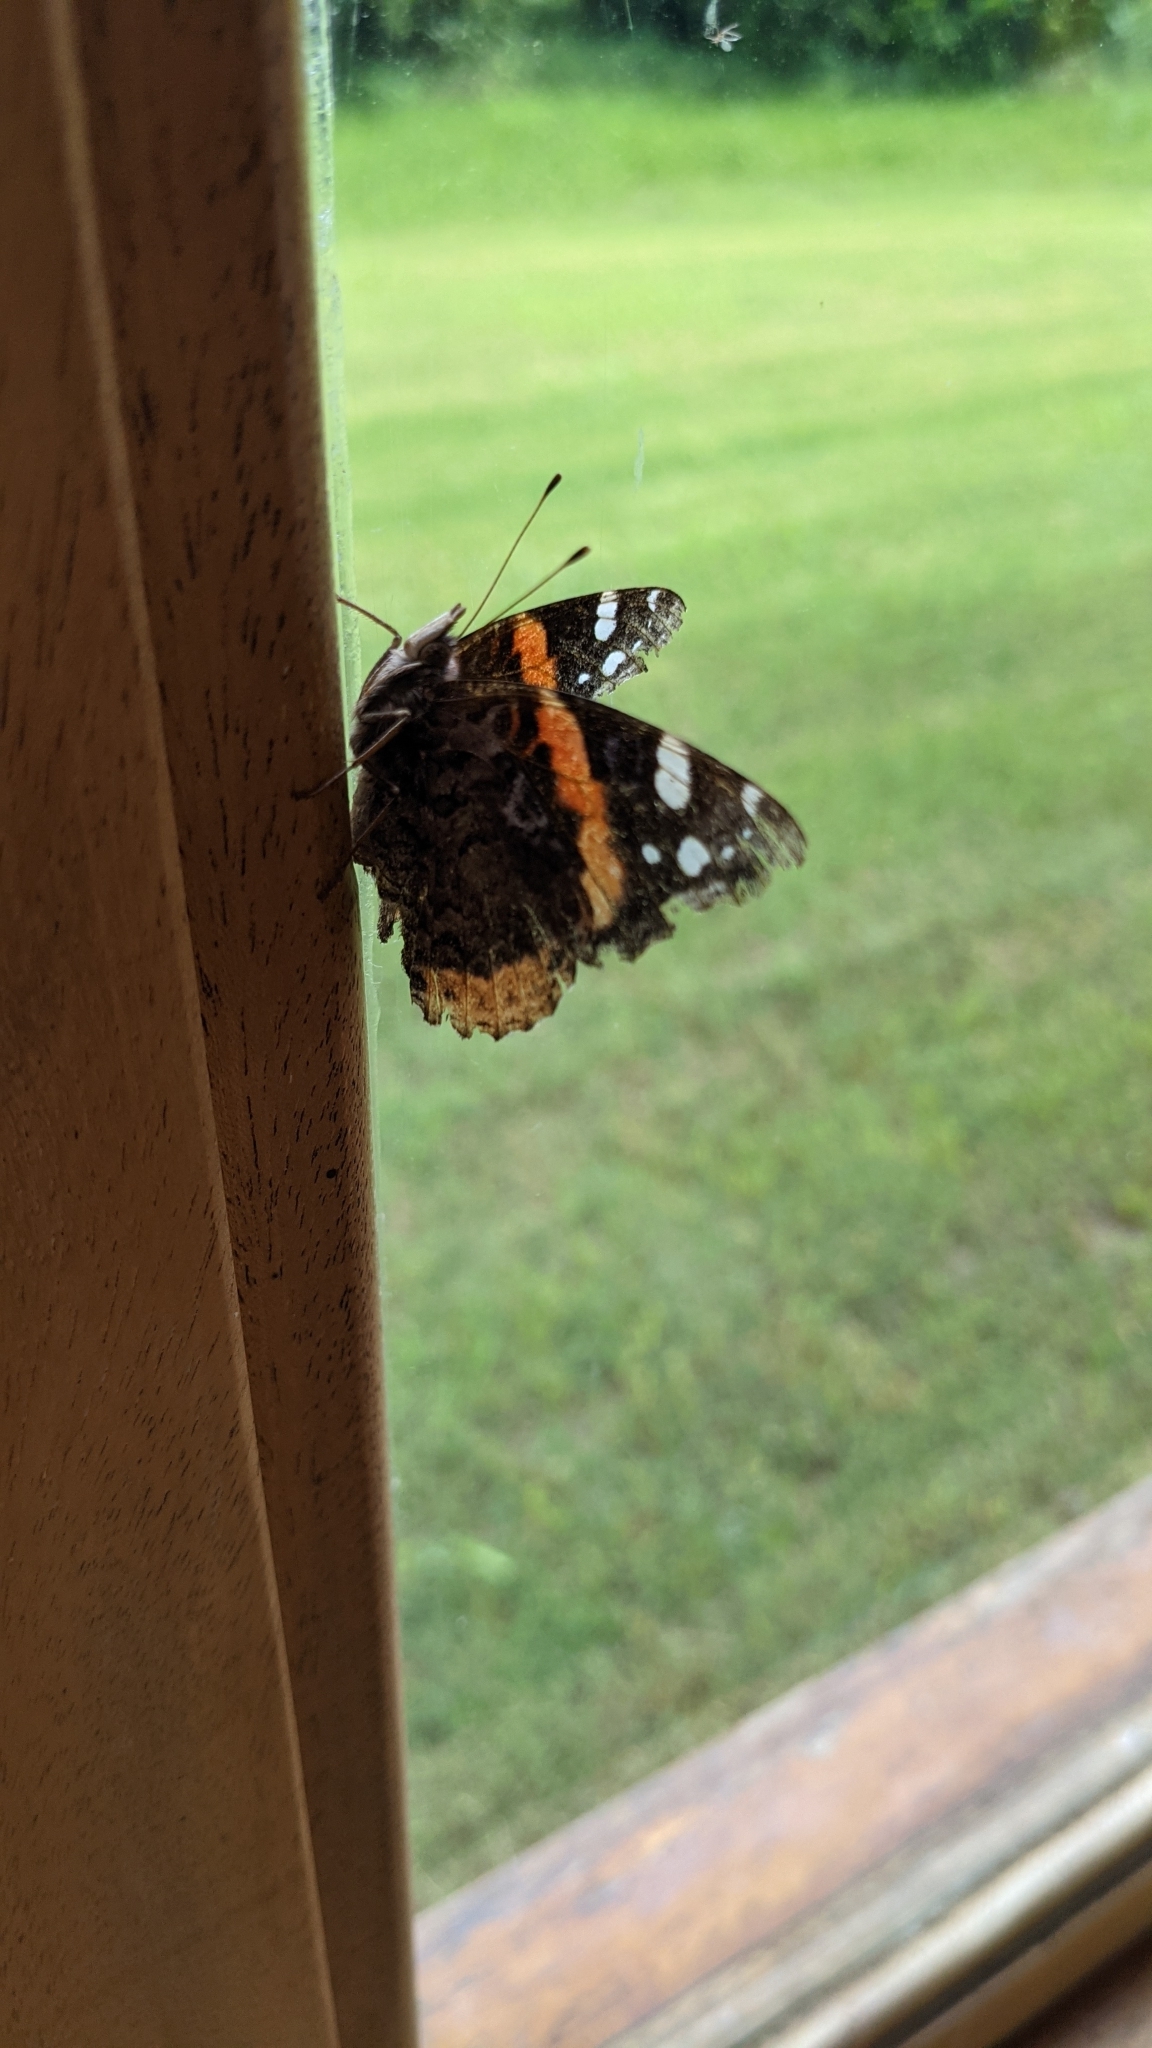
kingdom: Animalia
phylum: Arthropoda
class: Insecta
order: Lepidoptera
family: Nymphalidae
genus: Vanessa
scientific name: Vanessa atalanta
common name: Red admiral
